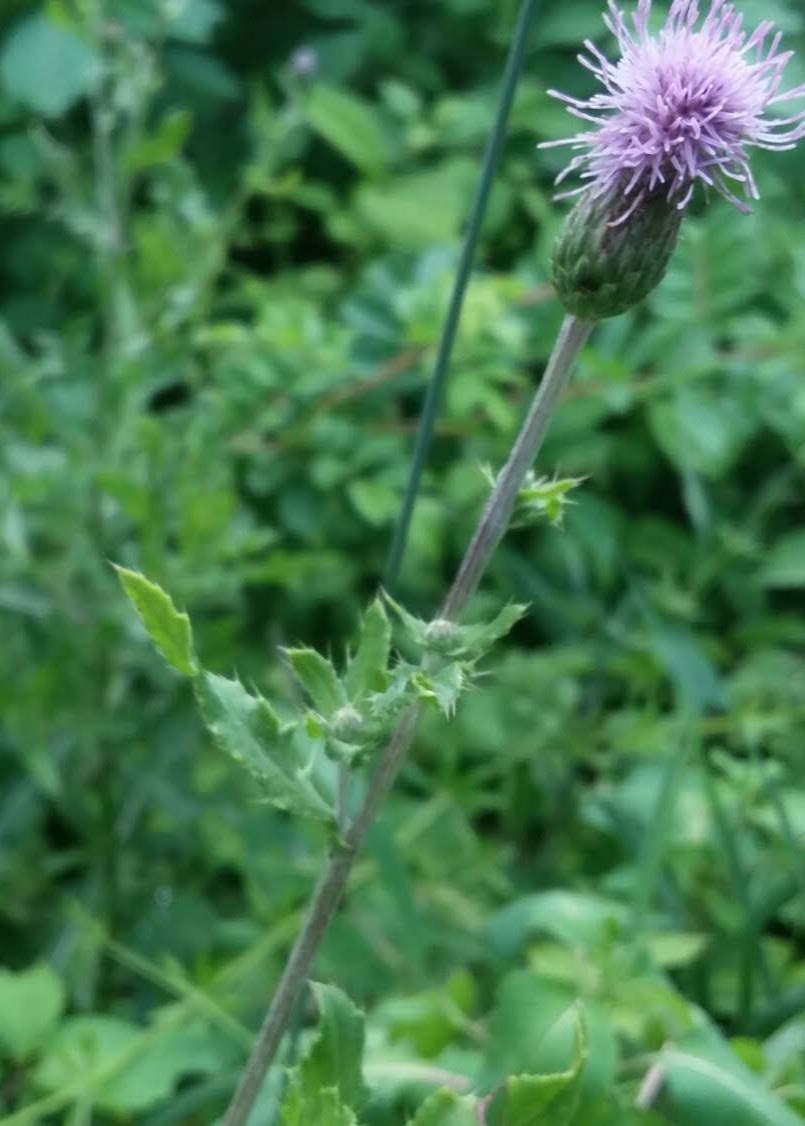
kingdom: Plantae
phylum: Tracheophyta
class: Magnoliopsida
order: Asterales
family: Asteraceae
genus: Cirsium
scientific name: Cirsium arvense
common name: Creeping thistle
